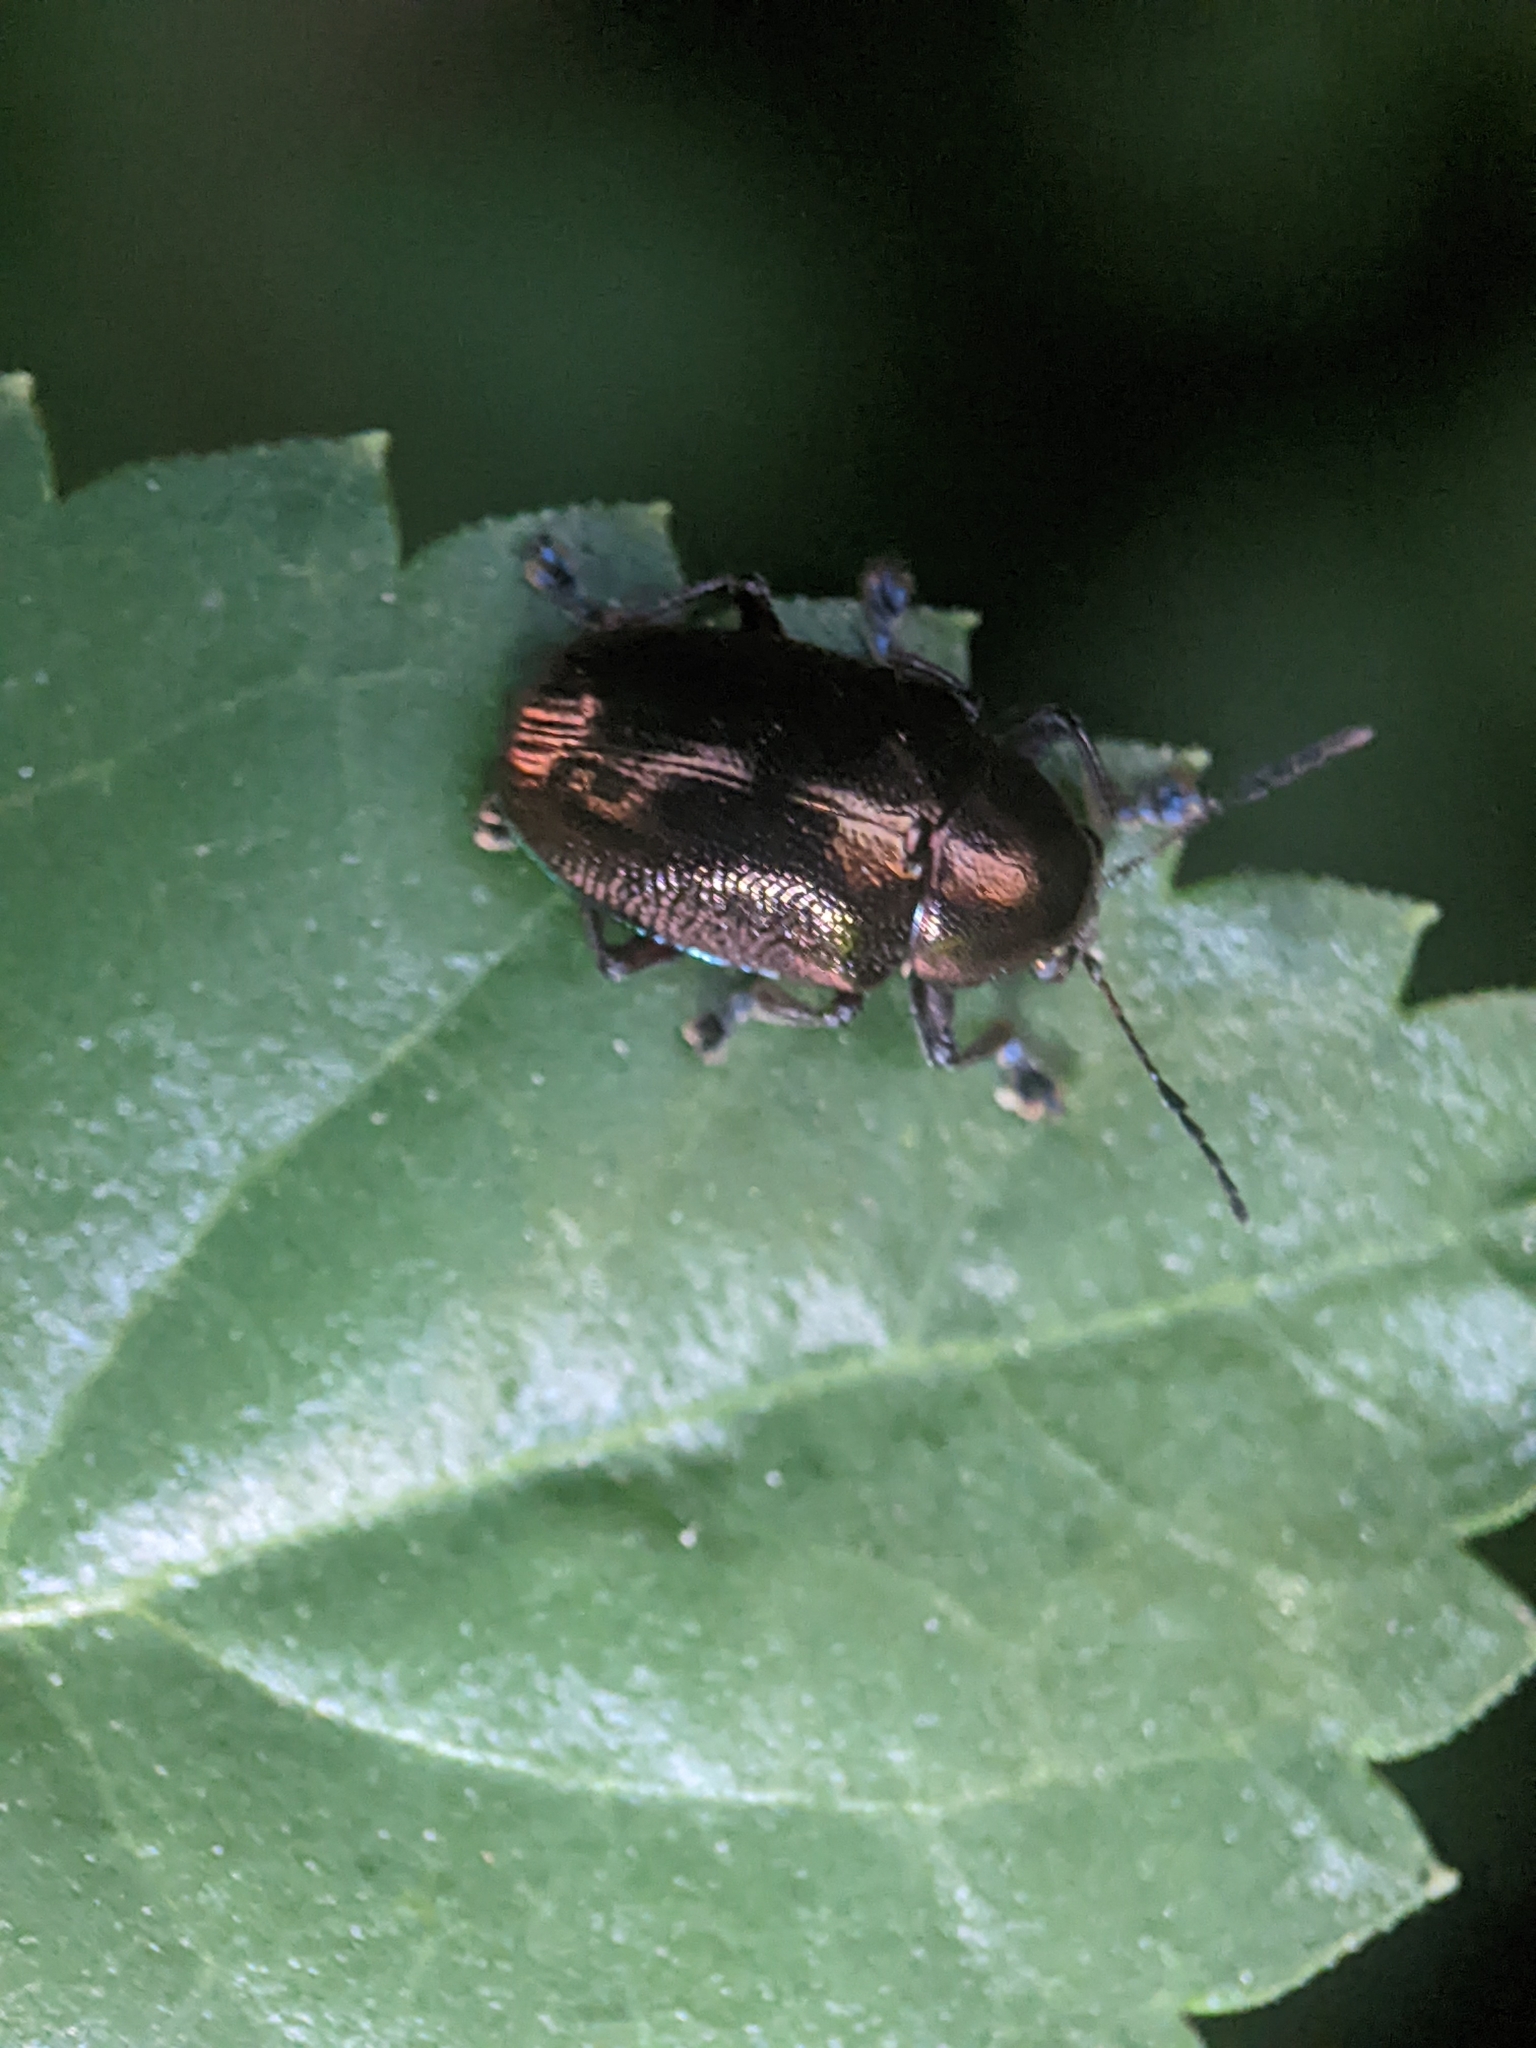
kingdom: Animalia
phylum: Arthropoda
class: Insecta
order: Coleoptera
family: Chrysomelidae
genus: Abirus
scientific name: Abirus
